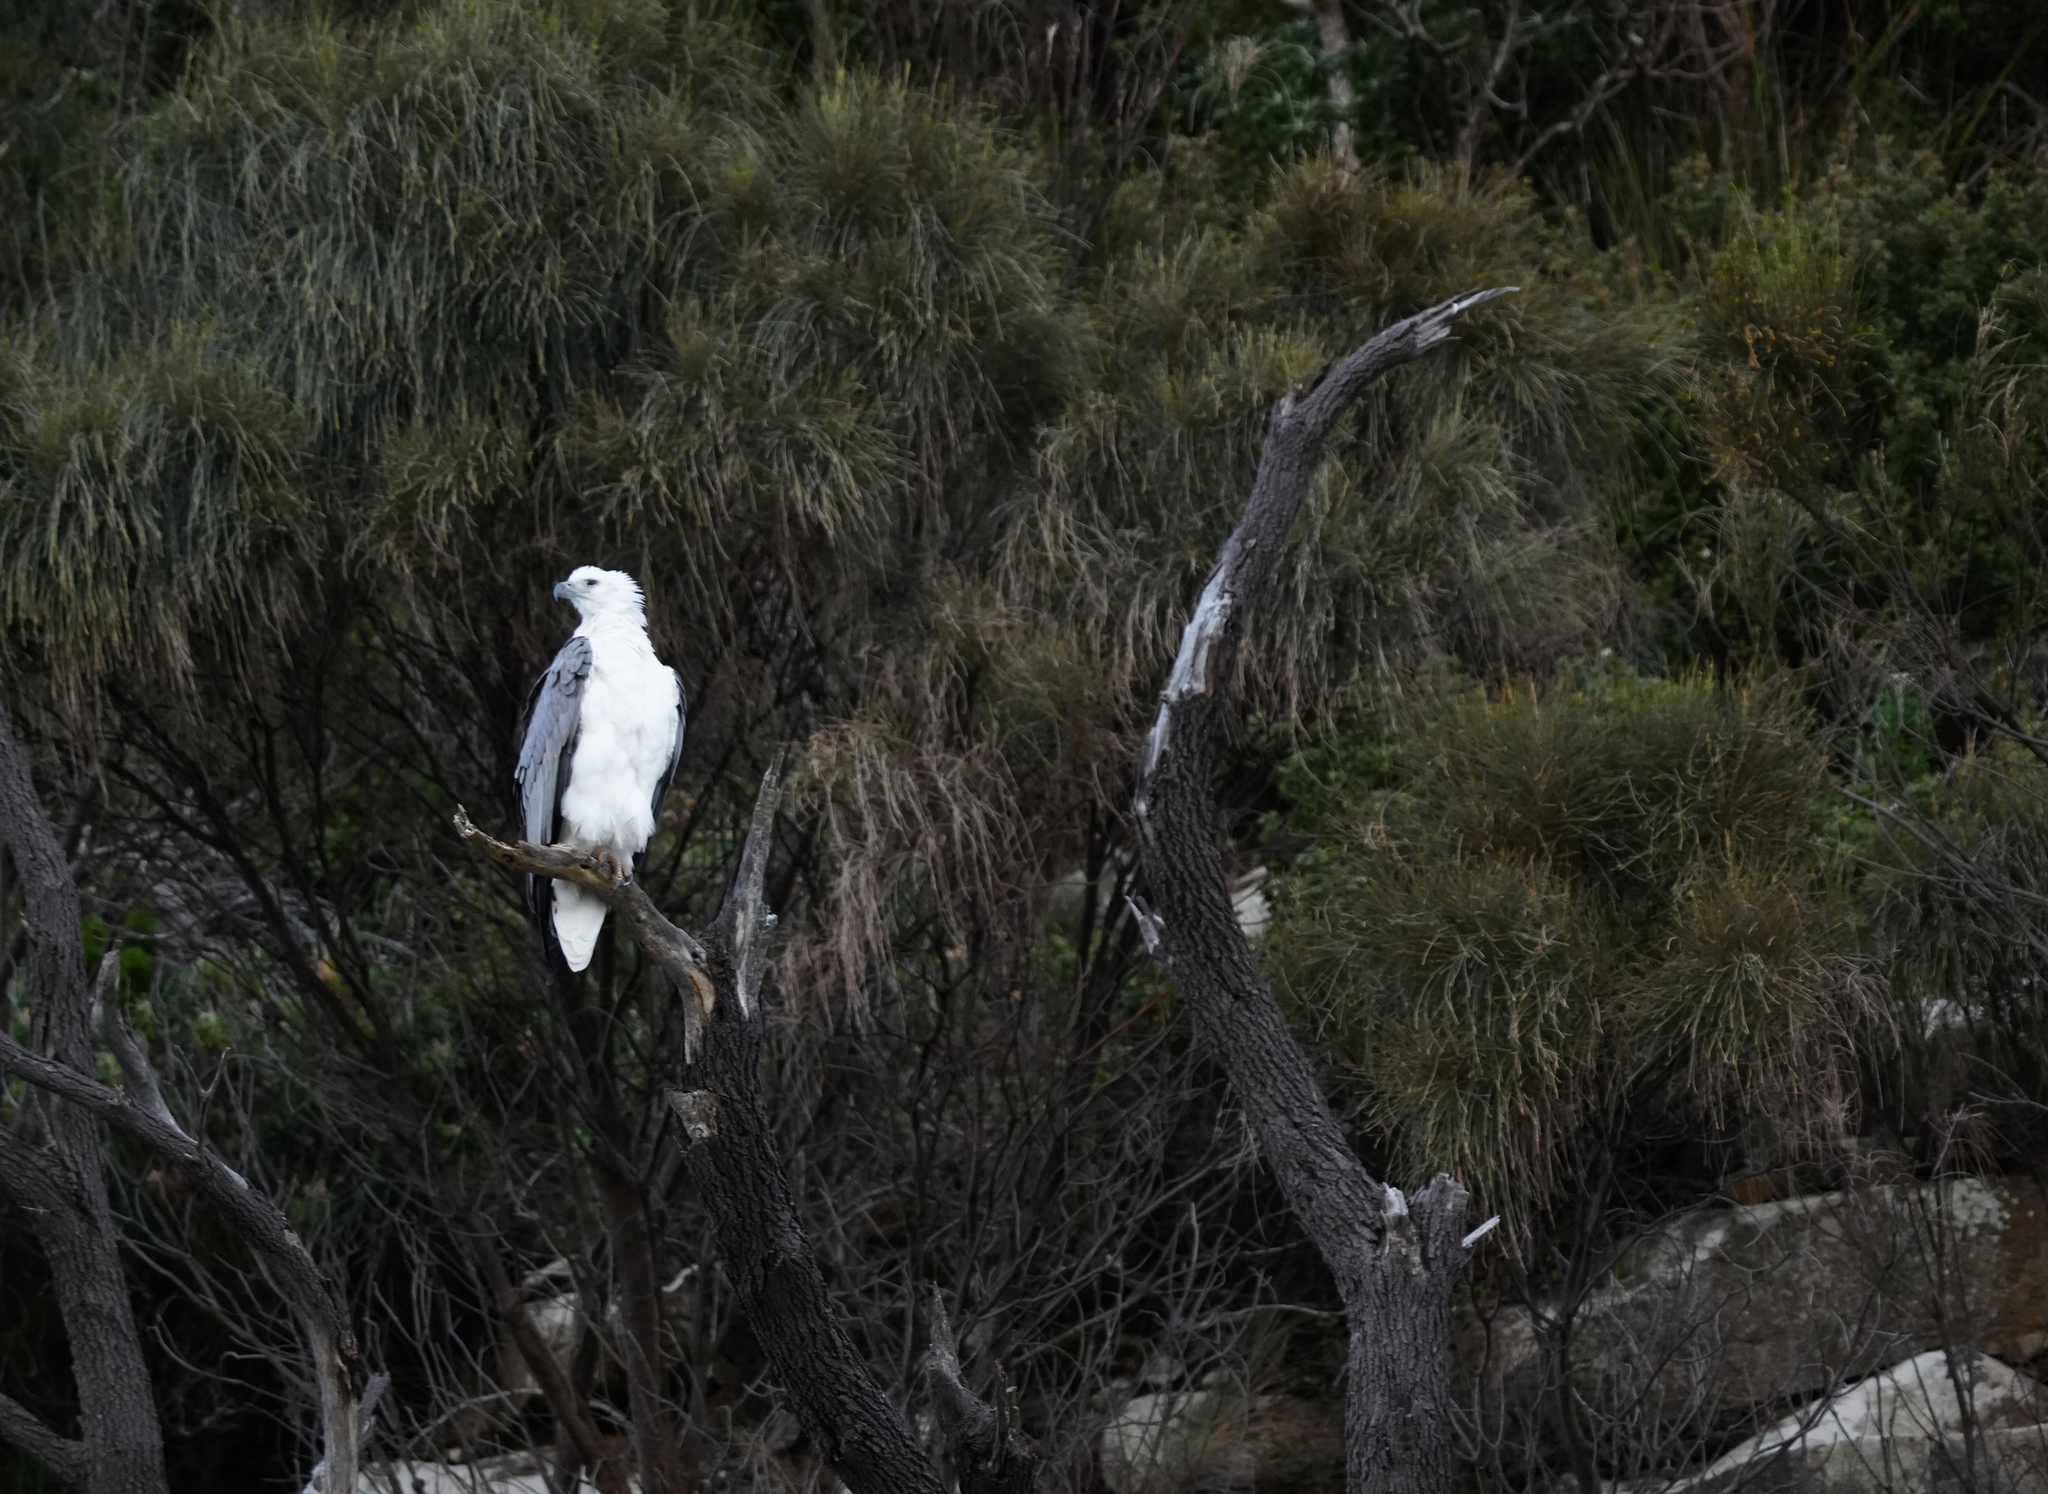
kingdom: Animalia
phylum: Chordata
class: Aves
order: Accipitriformes
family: Accipitridae
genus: Haliaeetus
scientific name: Haliaeetus leucogaster
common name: White-bellied sea eagle
